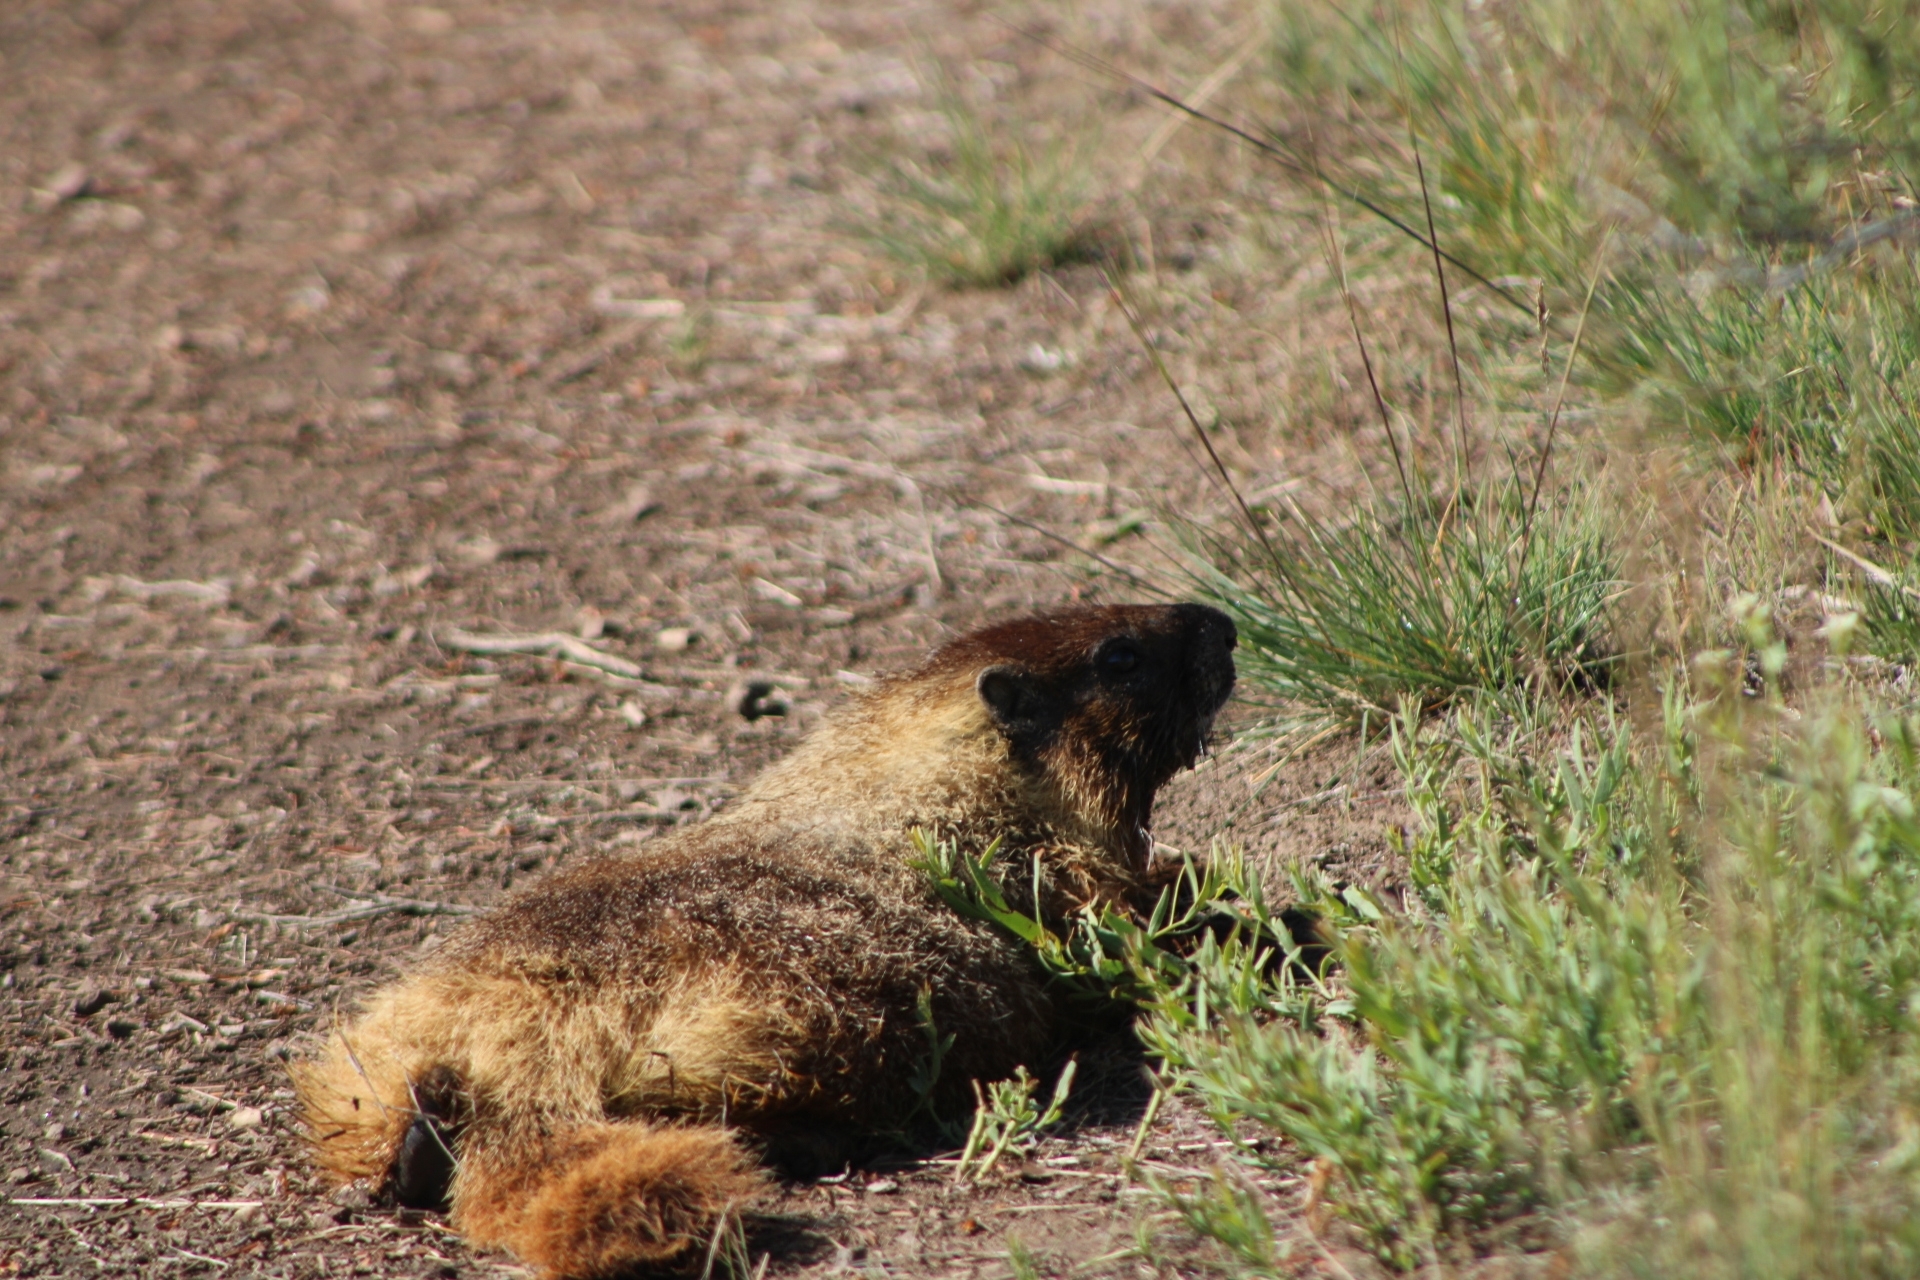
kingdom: Animalia
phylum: Chordata
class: Mammalia
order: Rodentia
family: Sciuridae
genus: Marmota
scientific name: Marmota flaviventris
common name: Yellow-bellied marmot
